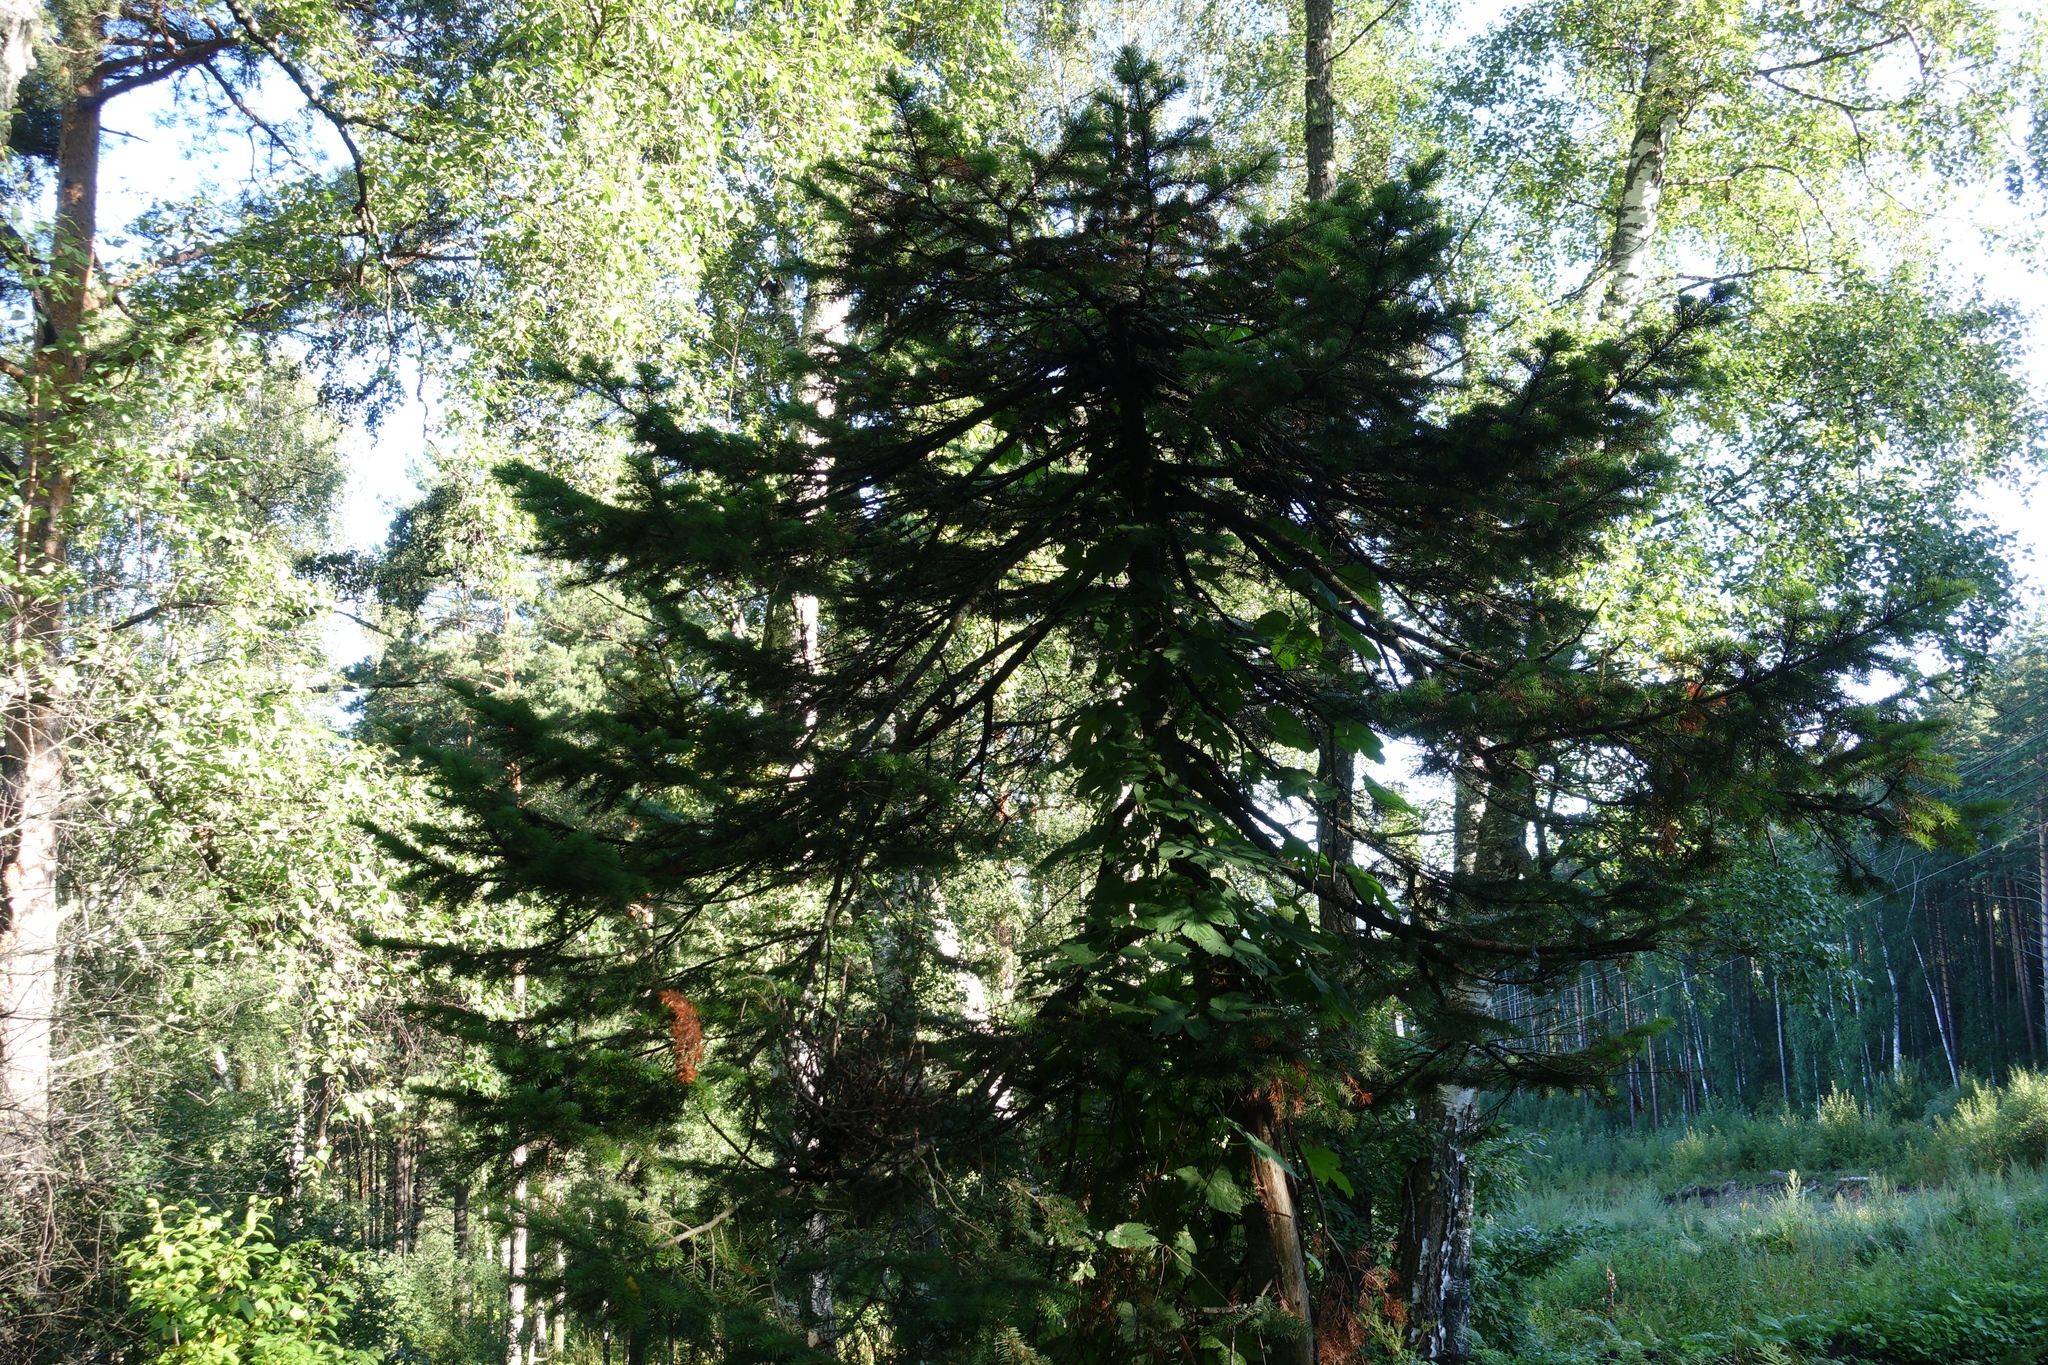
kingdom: Plantae
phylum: Tracheophyta
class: Pinopsida
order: Pinales
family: Pinaceae
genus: Picea
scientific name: Picea obovata
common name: Siberian spruce
